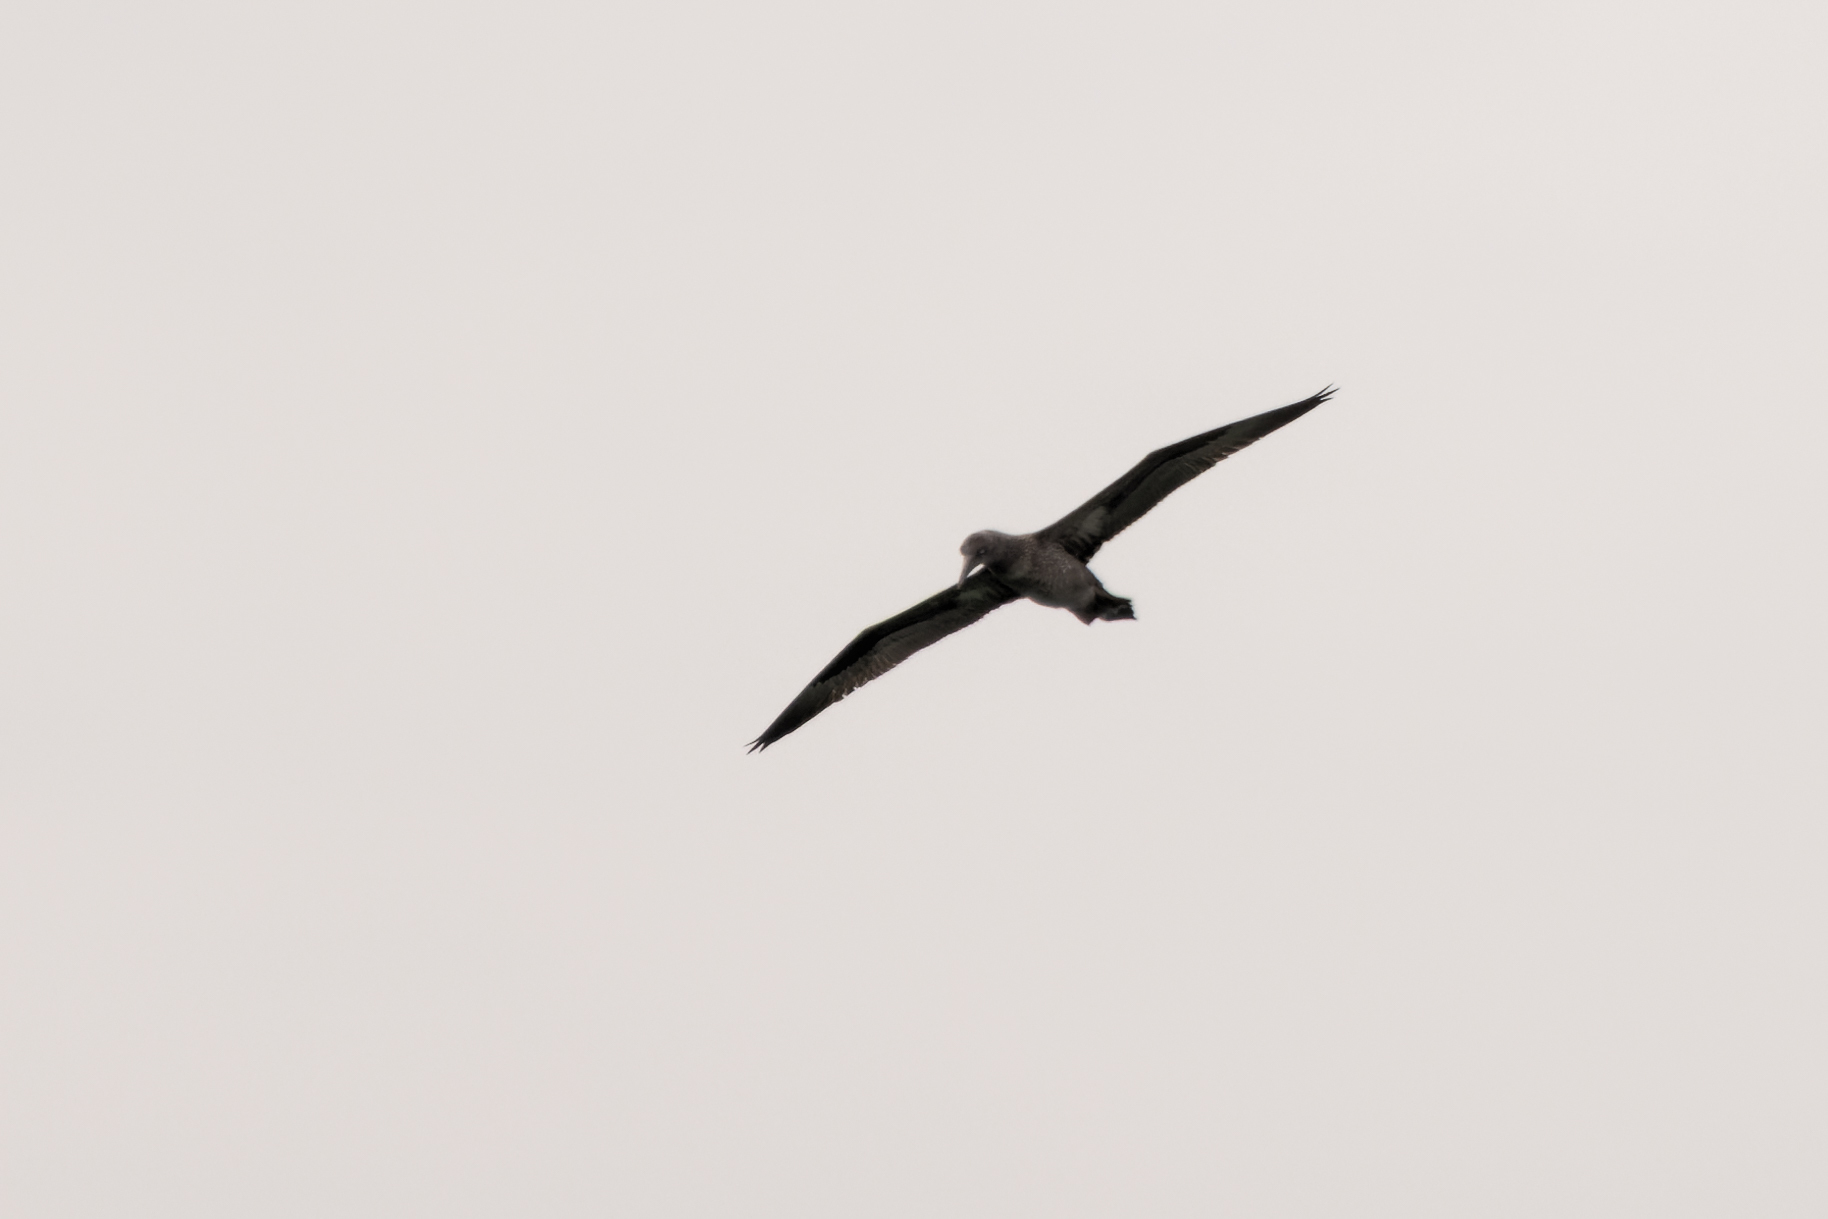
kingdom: Animalia
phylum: Chordata
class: Aves
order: Suliformes
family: Sulidae
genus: Morus
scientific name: Morus bassanus
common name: Northern gannet
